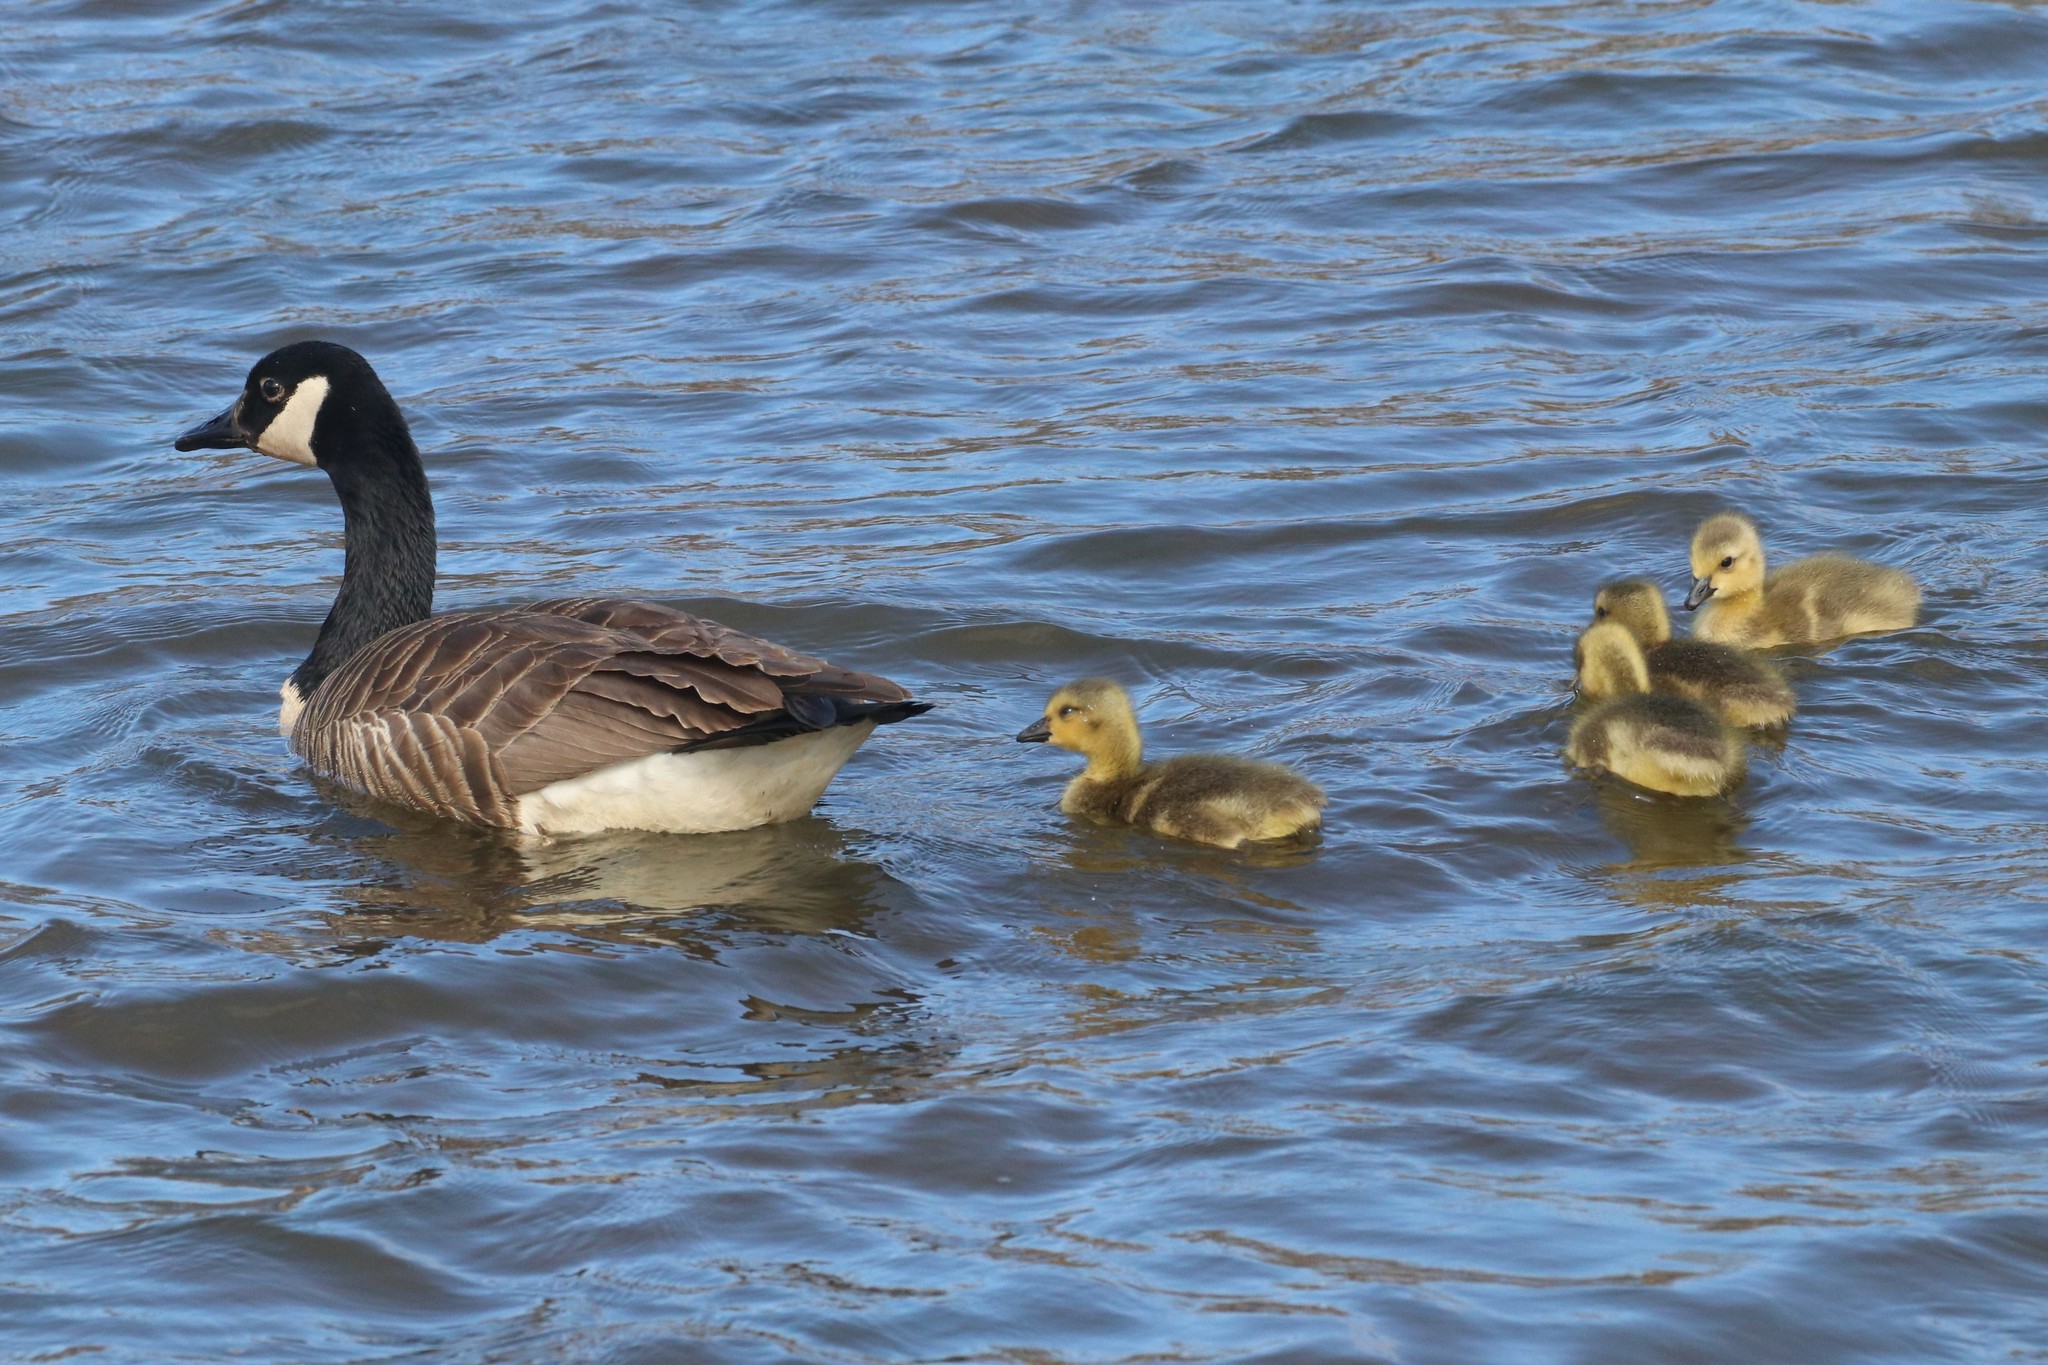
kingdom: Animalia
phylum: Chordata
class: Aves
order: Anseriformes
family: Anatidae
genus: Branta
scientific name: Branta canadensis
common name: Canada goose
